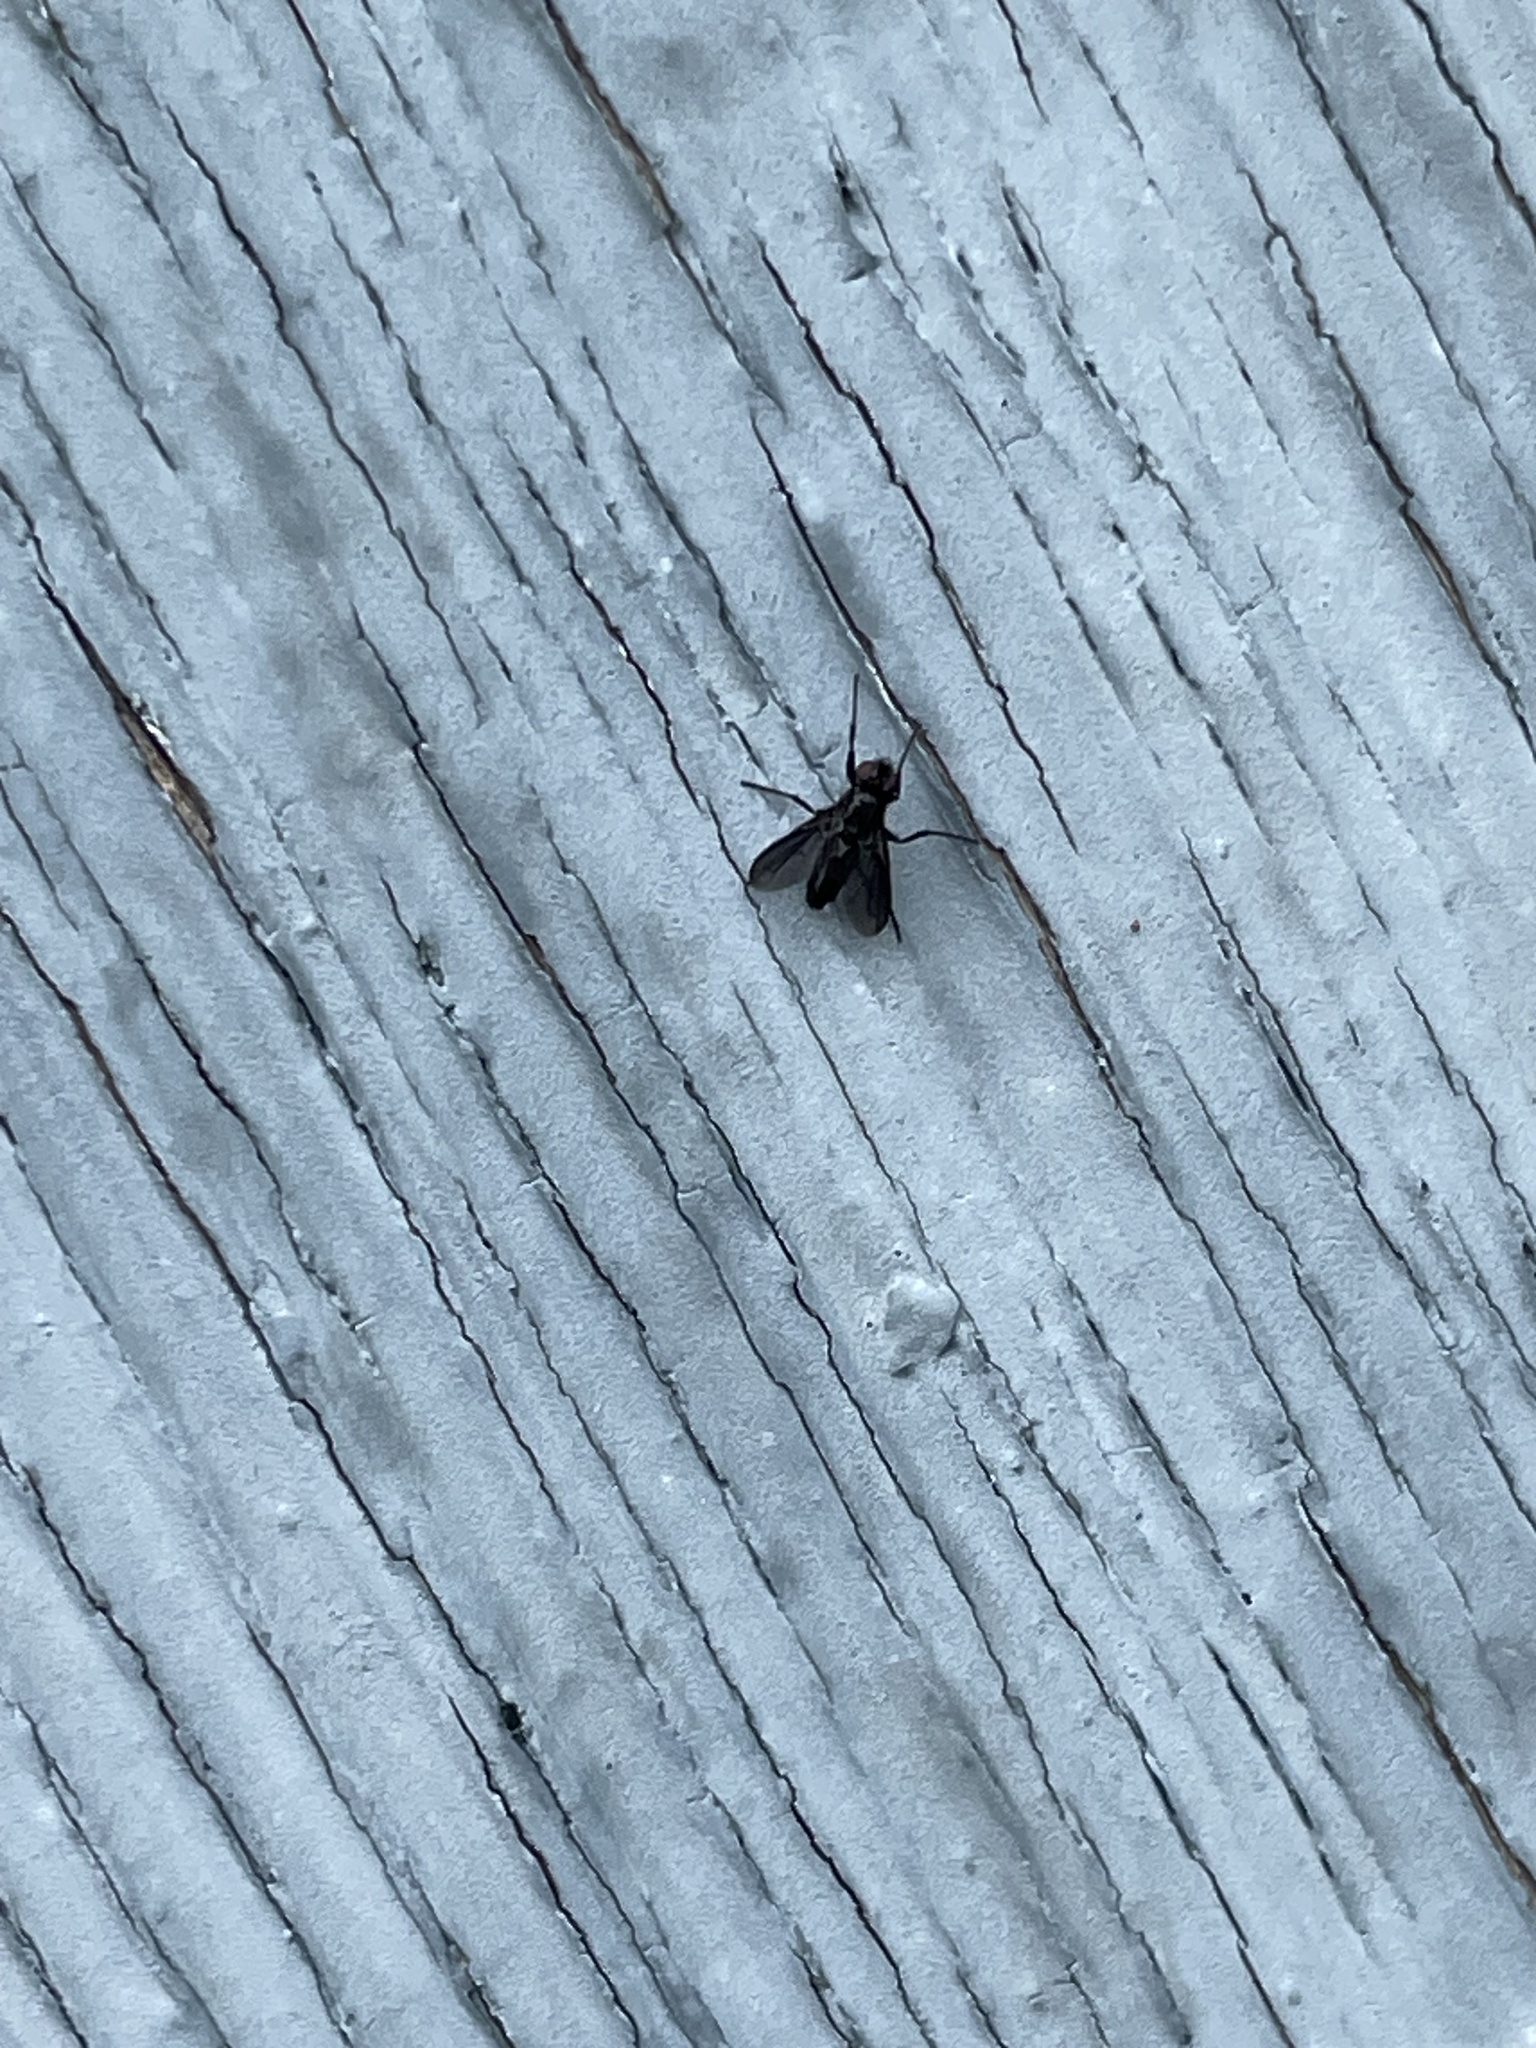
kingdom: Animalia
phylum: Arthropoda
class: Insecta
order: Diptera
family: Calliphoridae
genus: Melanophora
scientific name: Melanophora roralis
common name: Smoky-winged woodlouse-fly
